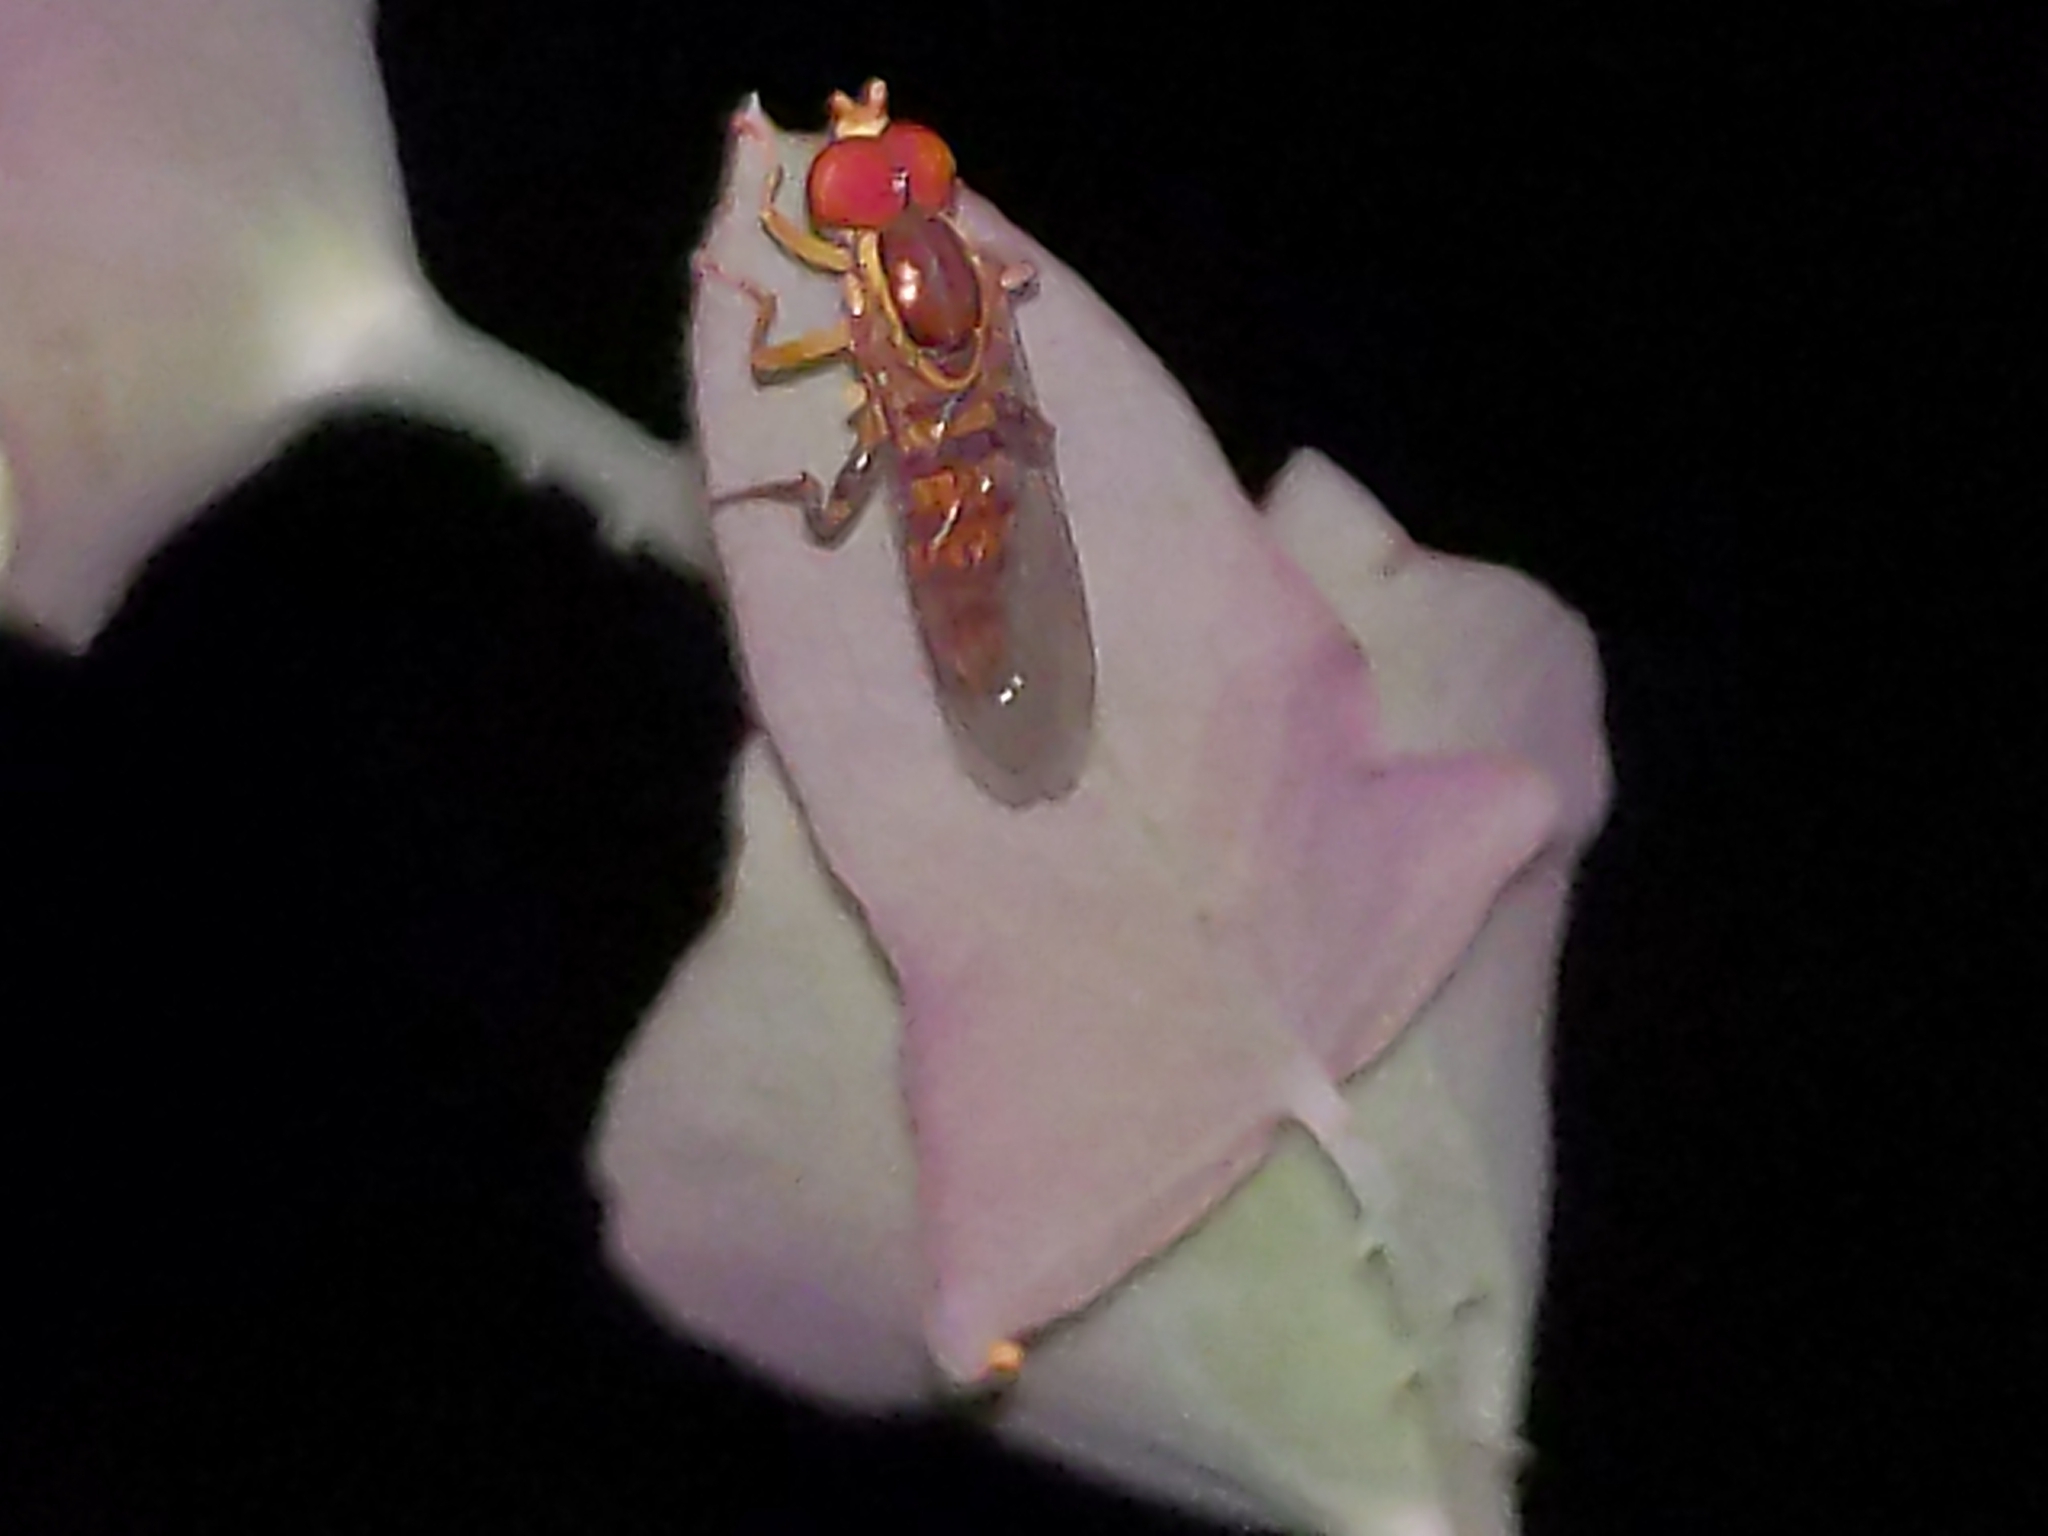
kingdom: Animalia
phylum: Arthropoda
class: Insecta
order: Diptera
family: Syrphidae
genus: Toxomerus
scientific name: Toxomerus geminatus
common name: Eastern calligrapher
